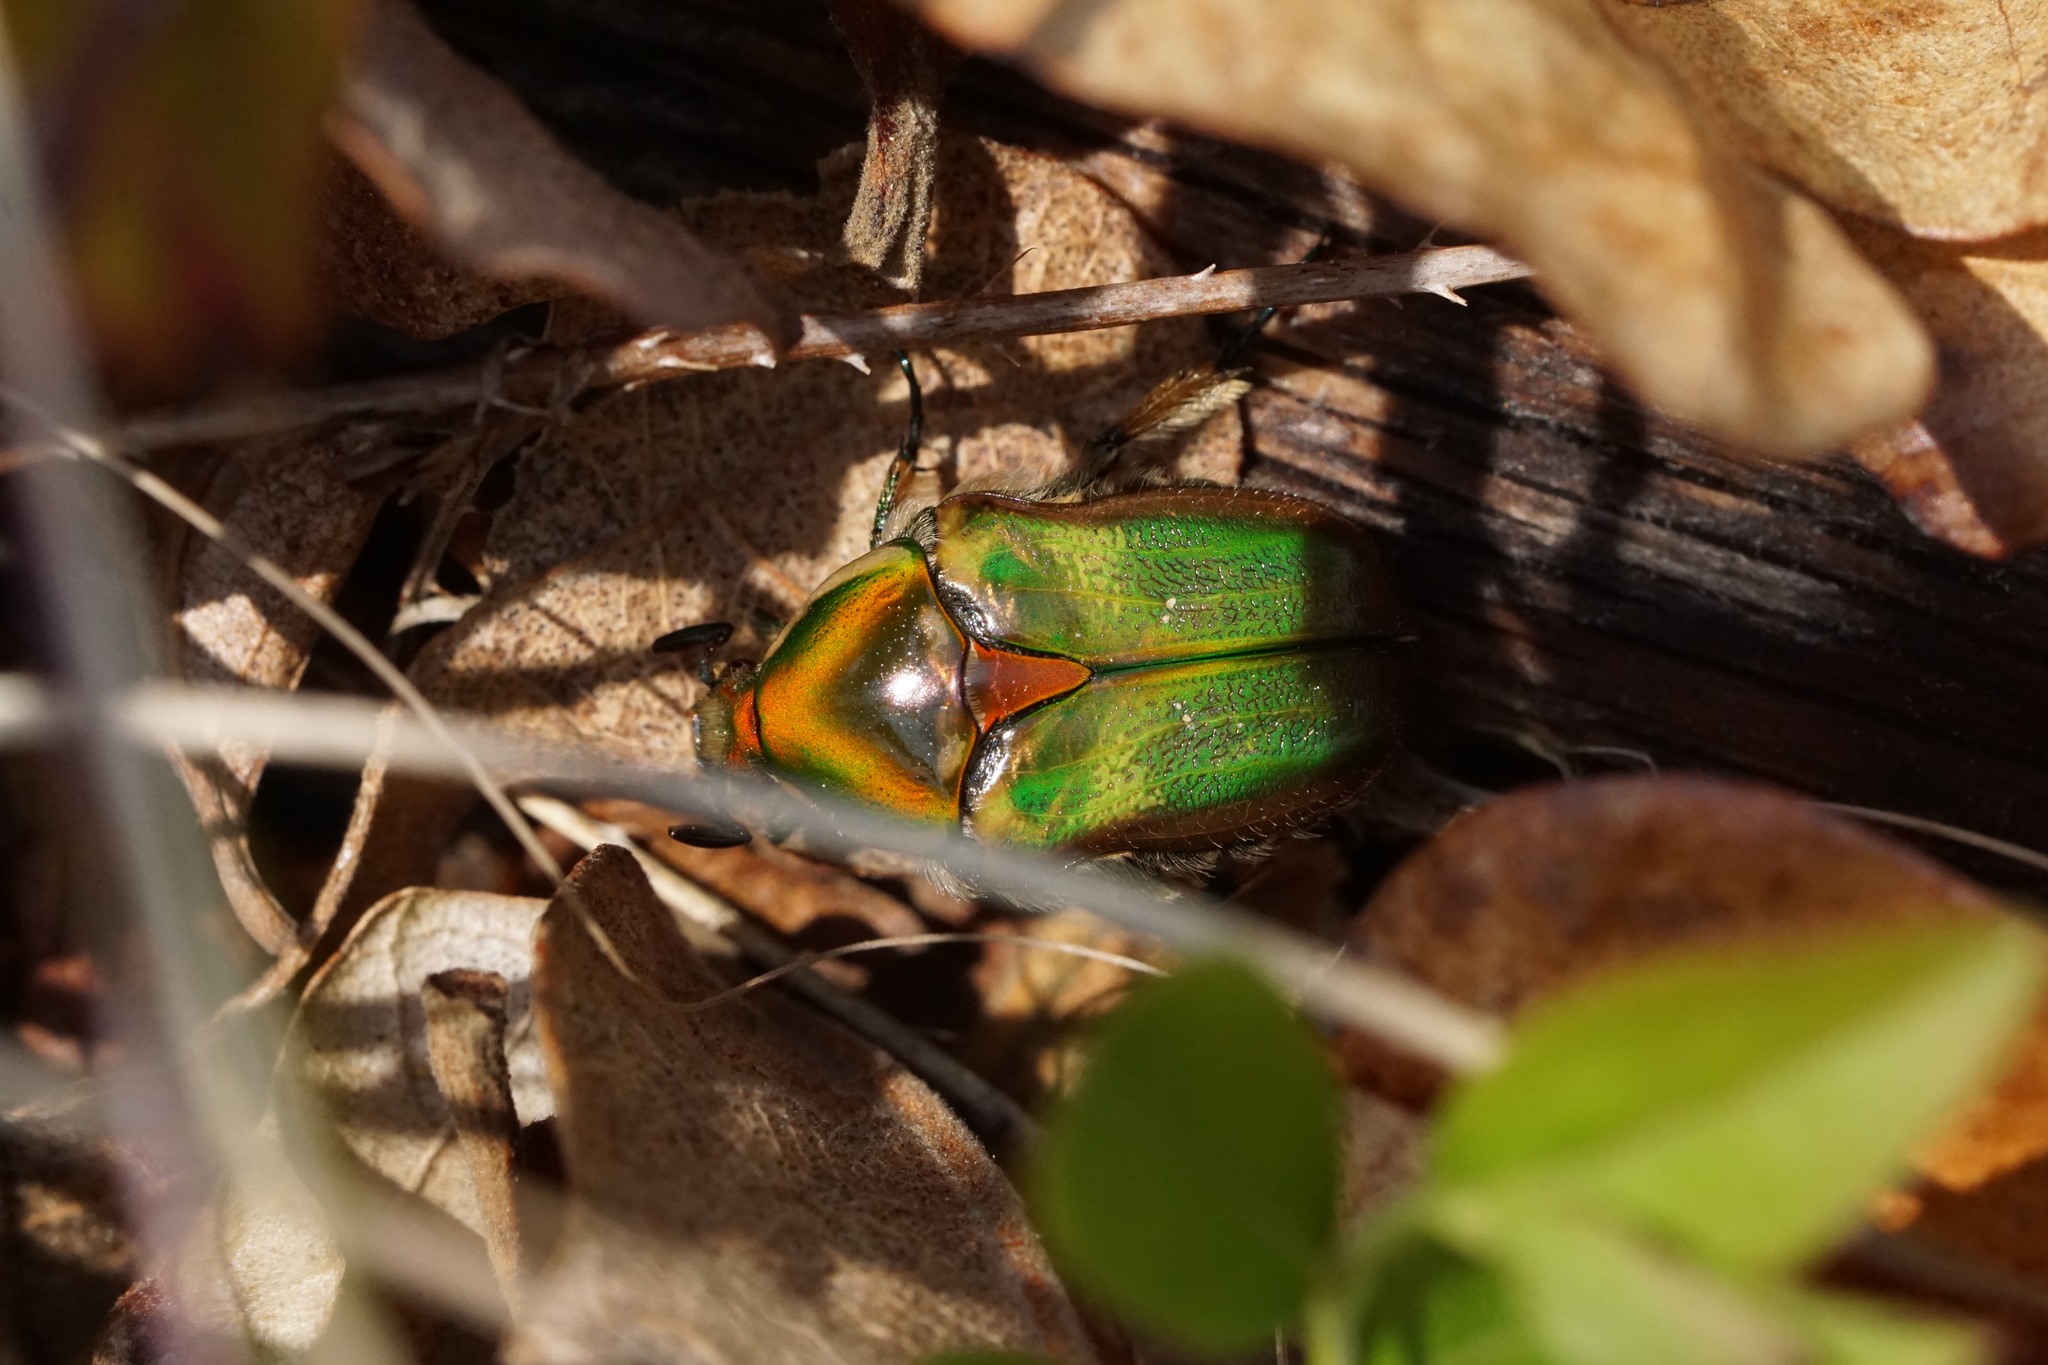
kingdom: Animalia
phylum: Arthropoda
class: Insecta
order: Coleoptera
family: Scarabaeidae
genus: Euphoria
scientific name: Euphoria fulgida
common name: Emerald euphoria
